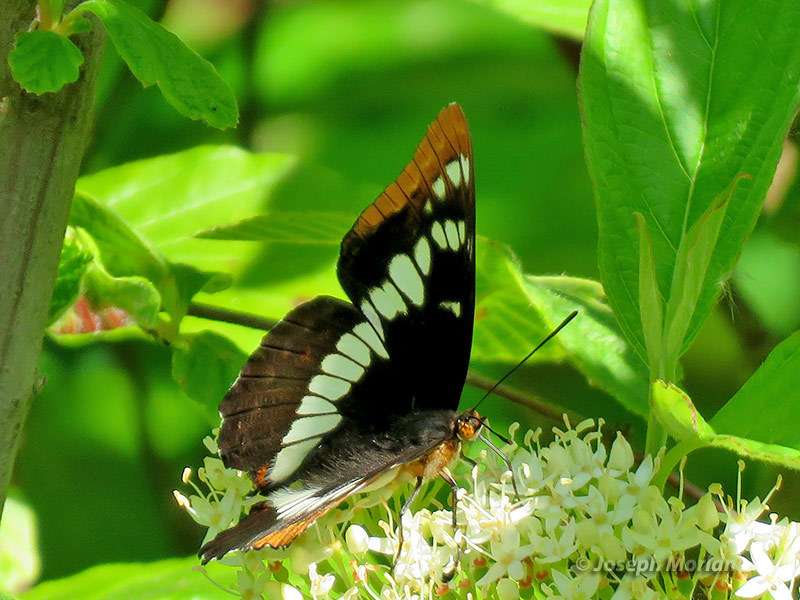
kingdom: Animalia
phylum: Arthropoda
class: Insecta
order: Lepidoptera
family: Nymphalidae
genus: Limenitis
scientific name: Limenitis lorquini
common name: Lorquin's admiral
